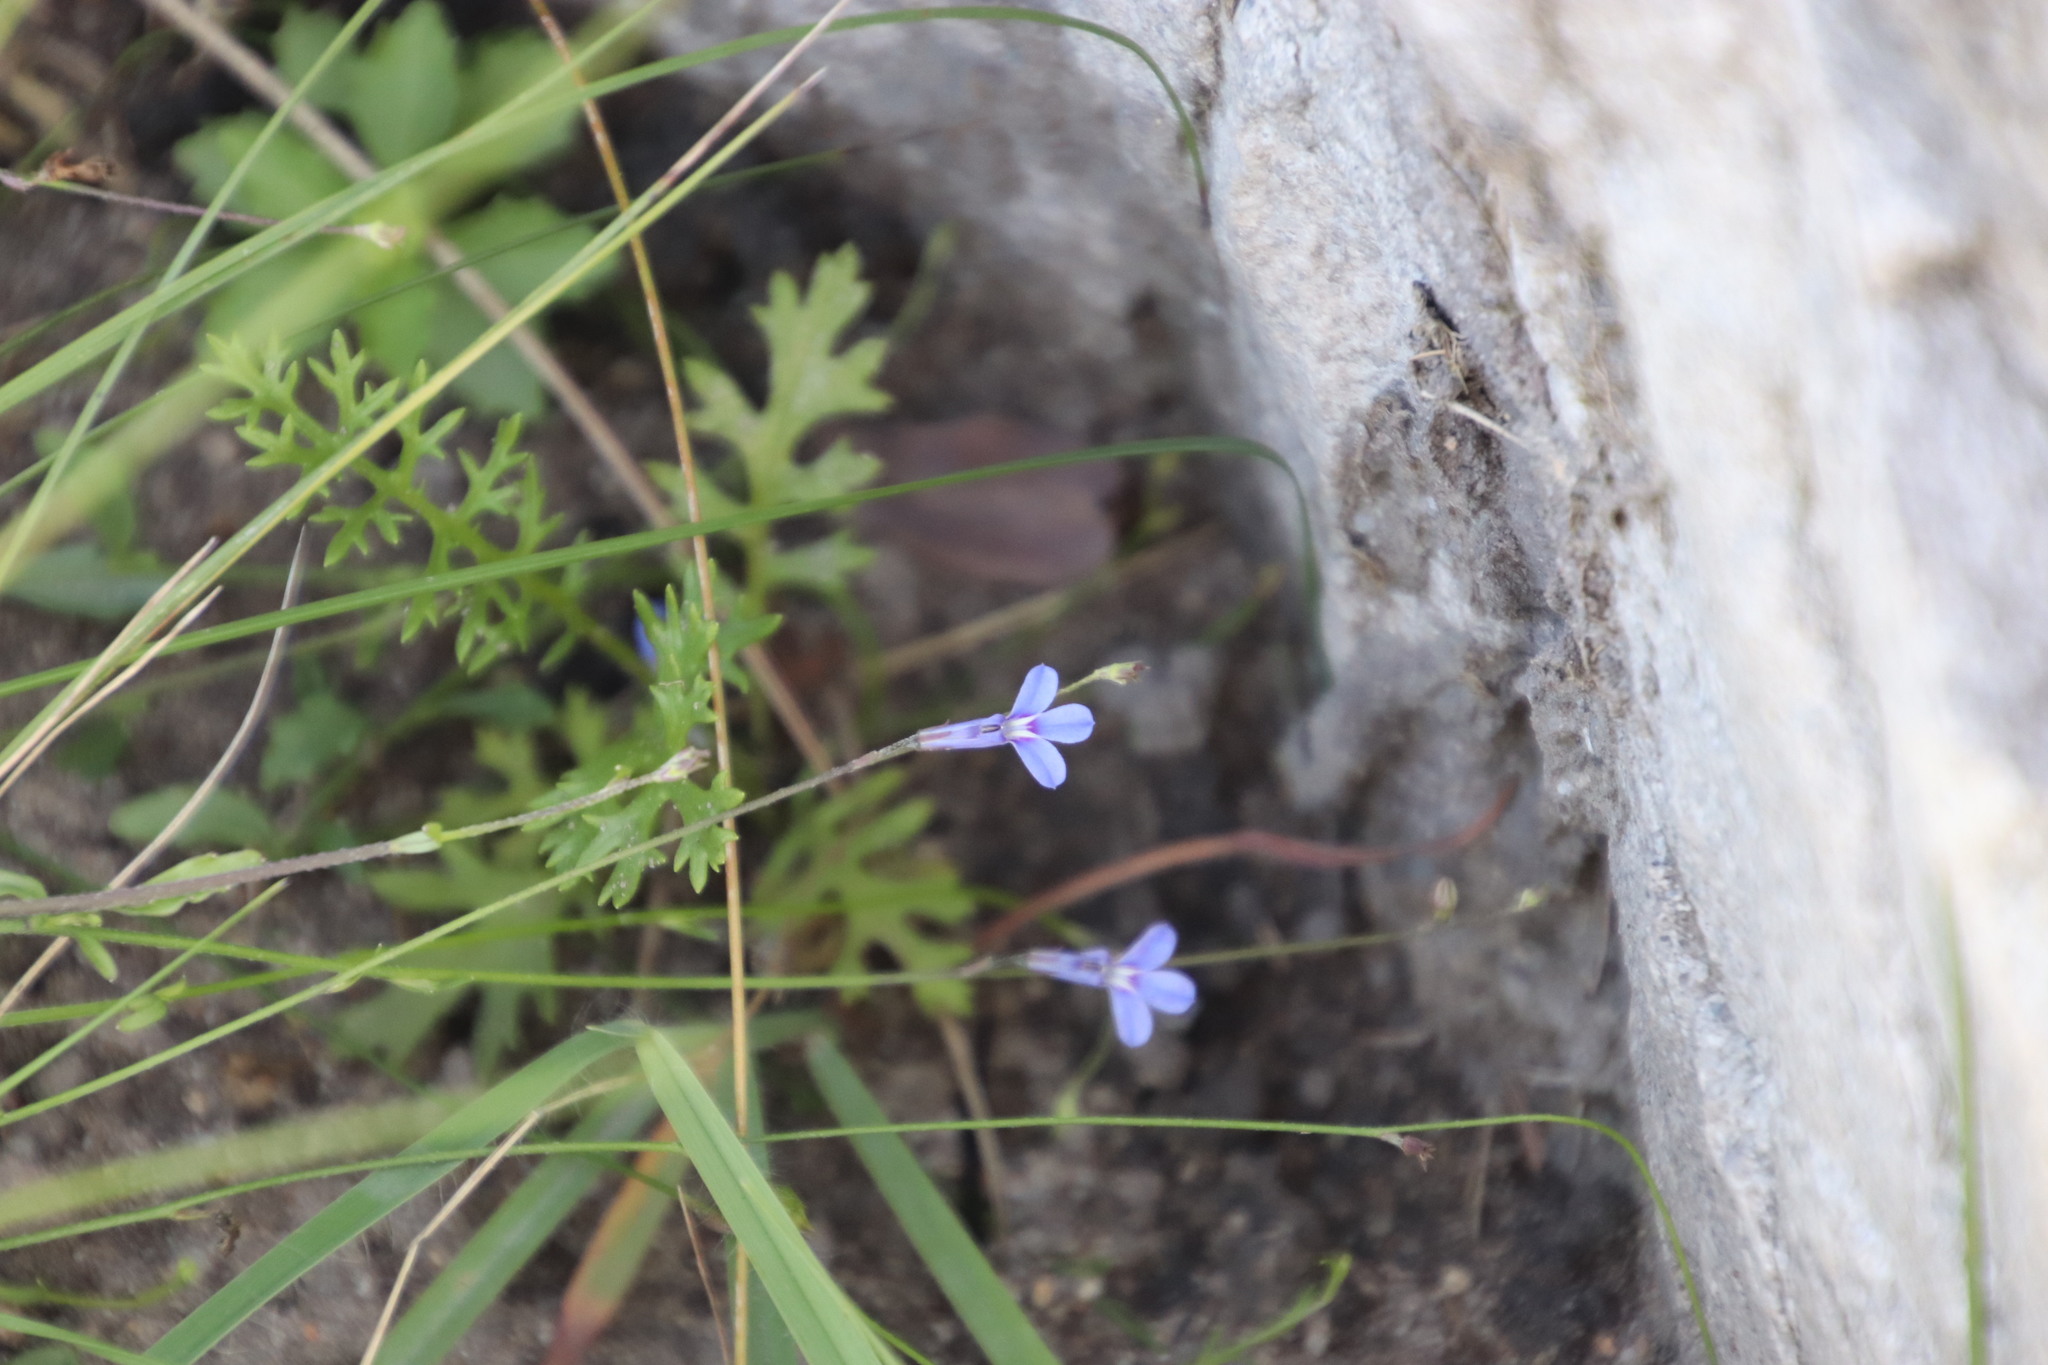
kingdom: Plantae
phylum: Tracheophyta
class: Magnoliopsida
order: Asterales
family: Campanulaceae
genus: Lobelia
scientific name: Lobelia chamaedryfolia
